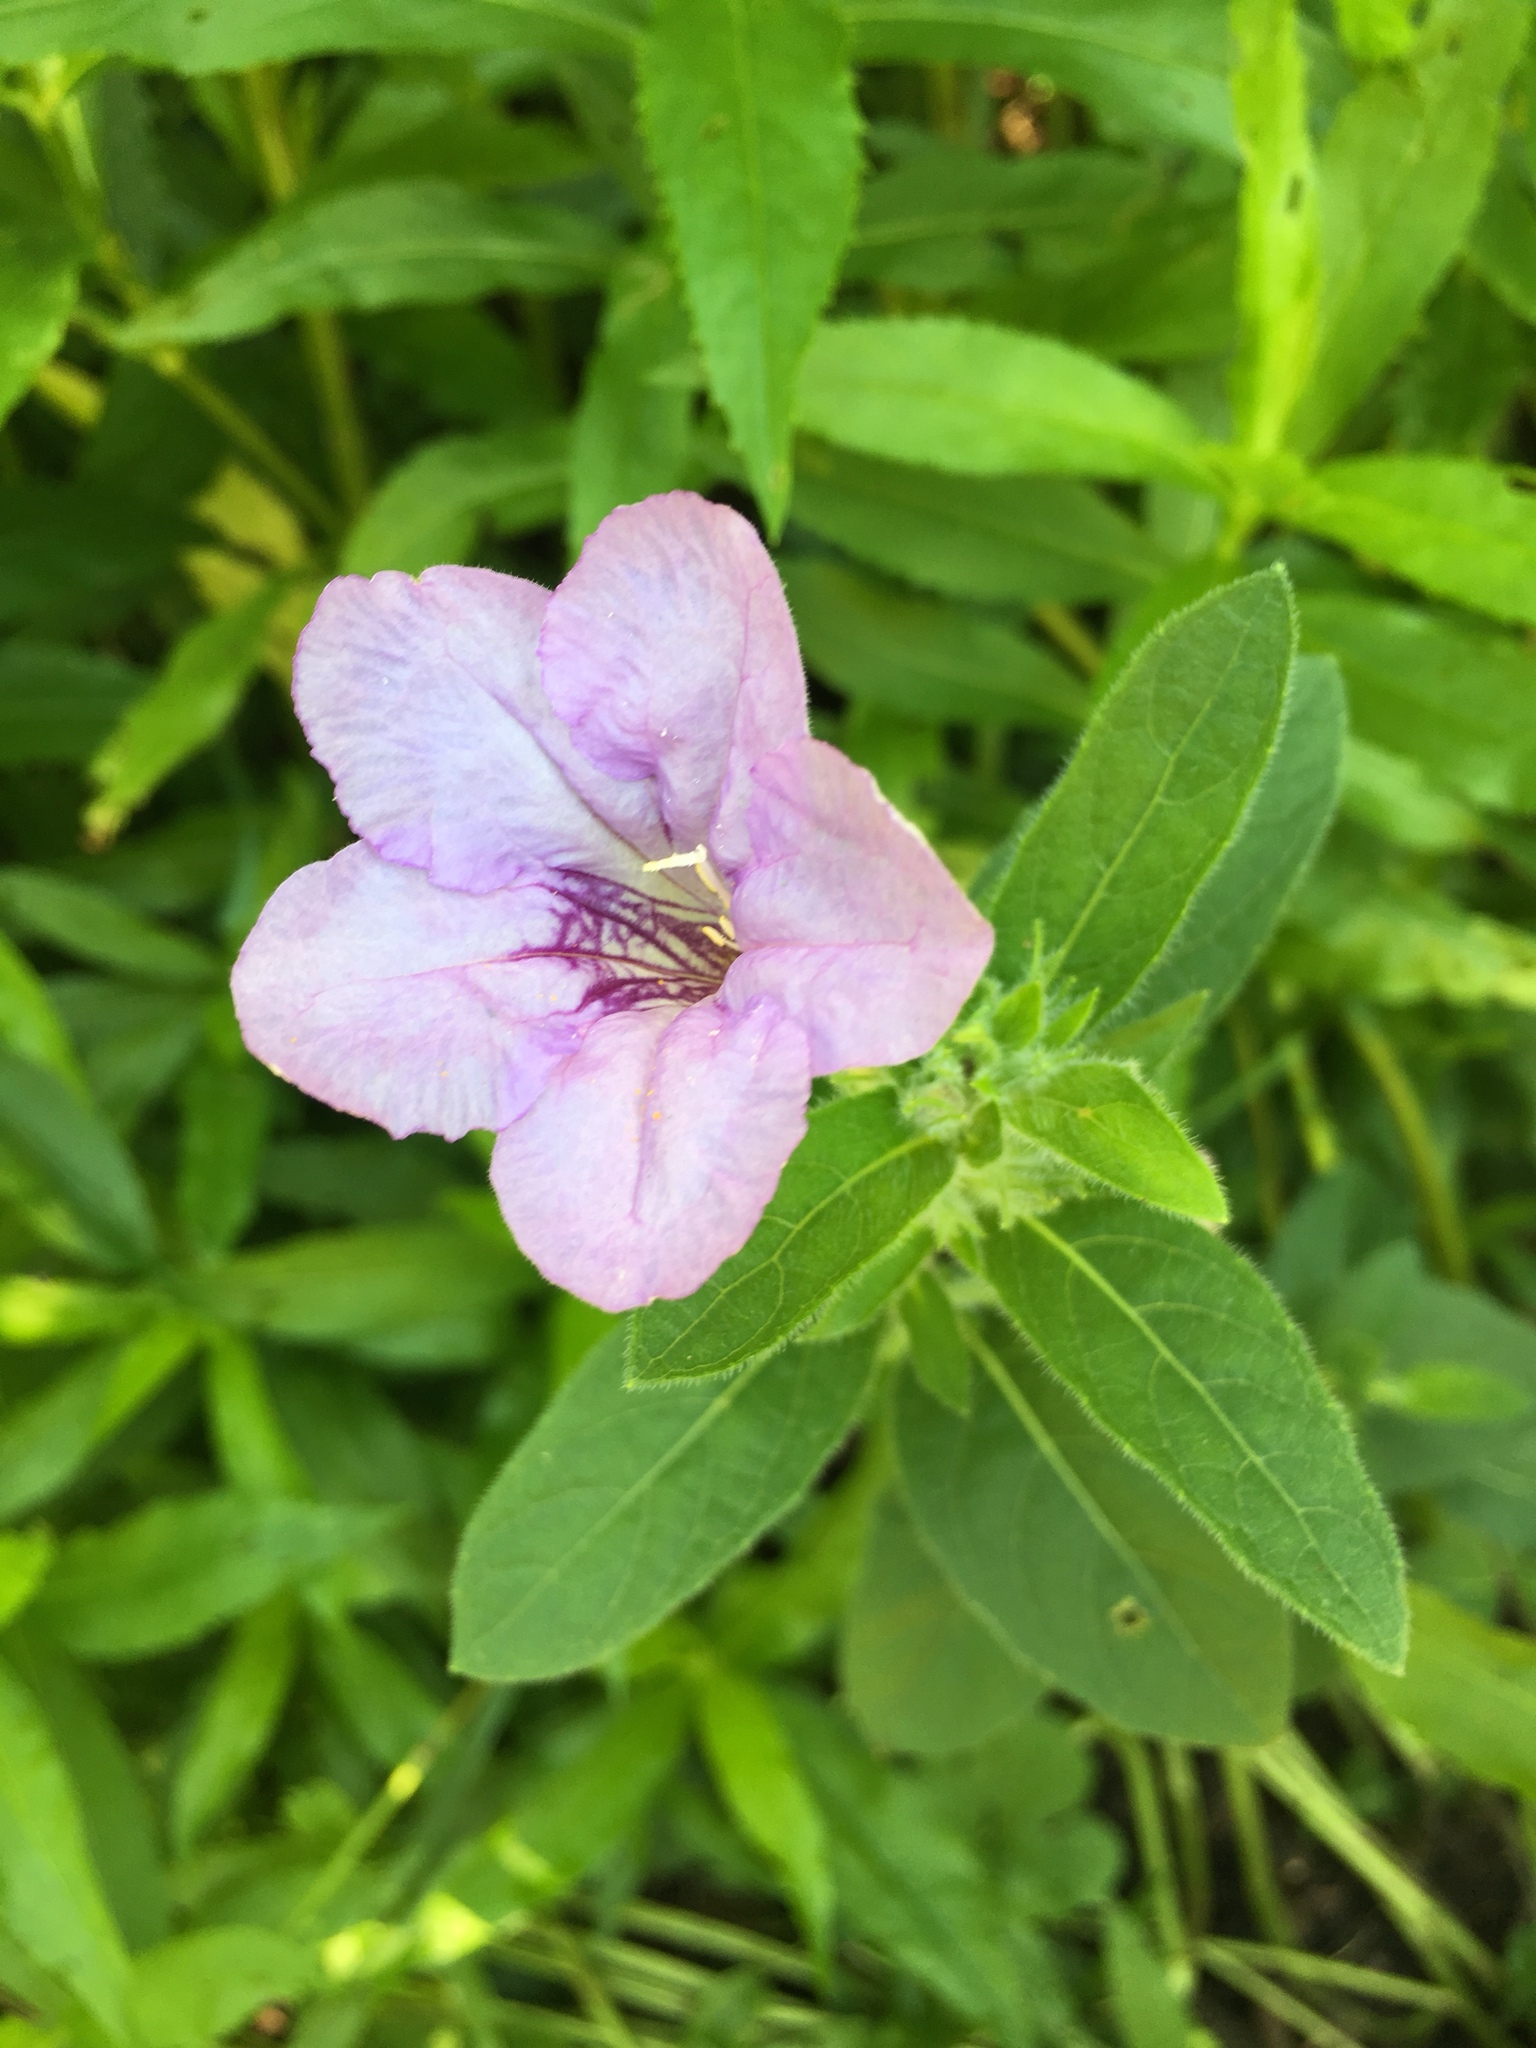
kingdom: Plantae
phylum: Tracheophyta
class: Magnoliopsida
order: Lamiales
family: Acanthaceae
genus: Ruellia
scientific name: Ruellia humilis
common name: Fringe-leaf ruellia
